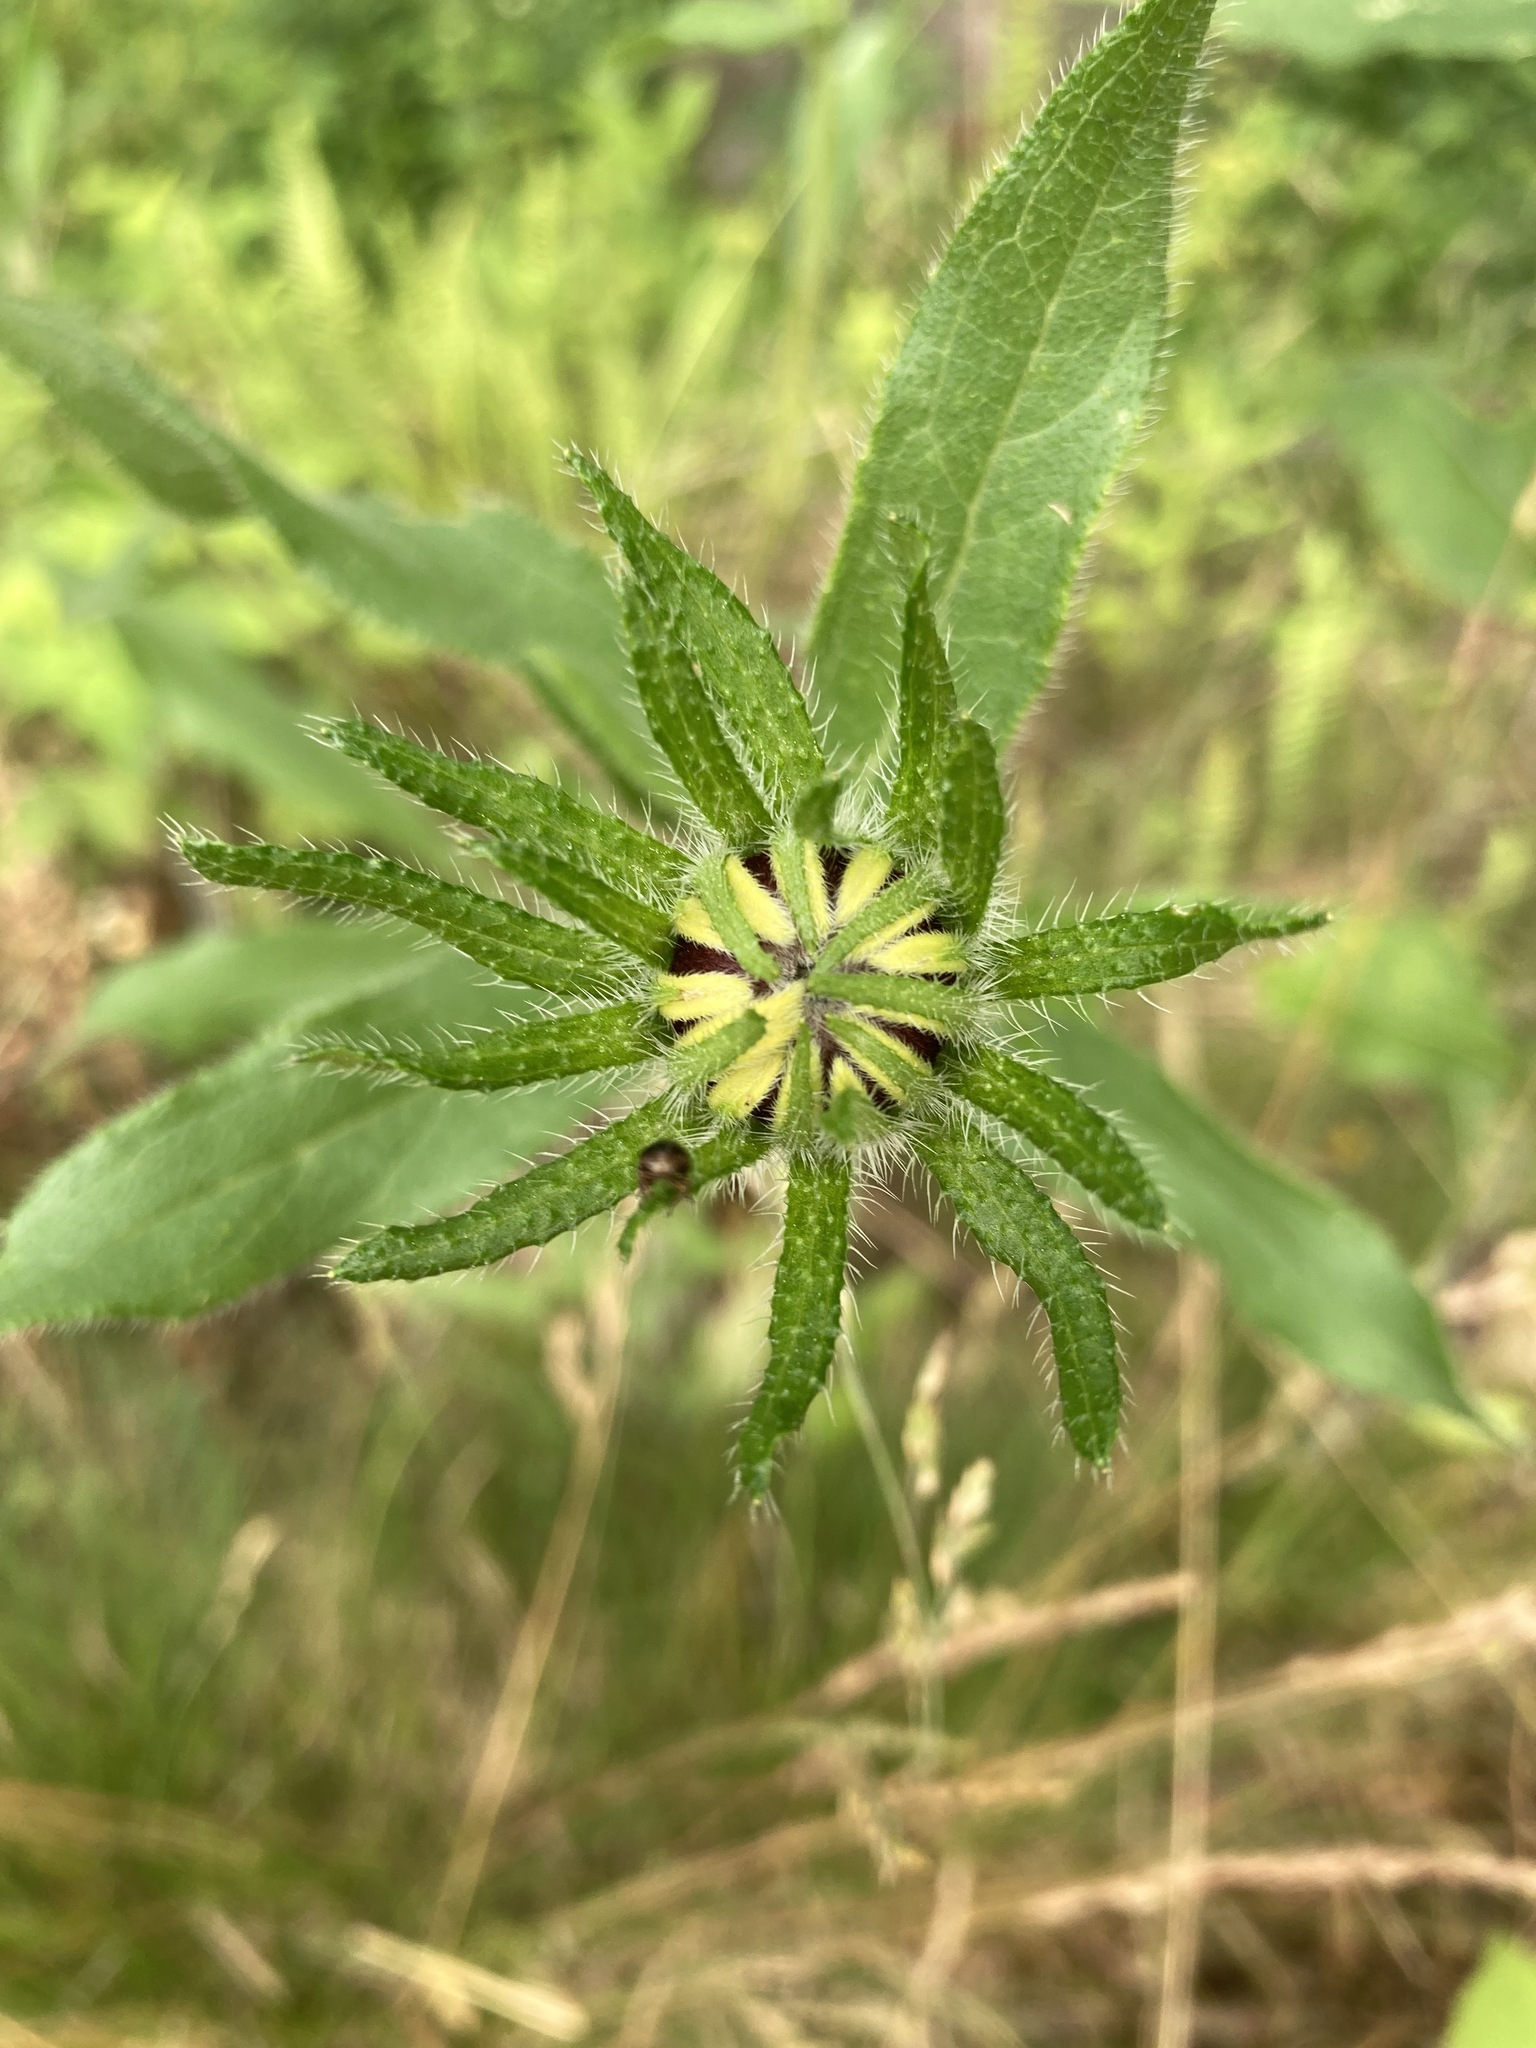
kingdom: Plantae
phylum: Tracheophyta
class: Magnoliopsida
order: Asterales
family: Asteraceae
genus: Rudbeckia
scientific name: Rudbeckia hirta
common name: Black-eyed-susan
